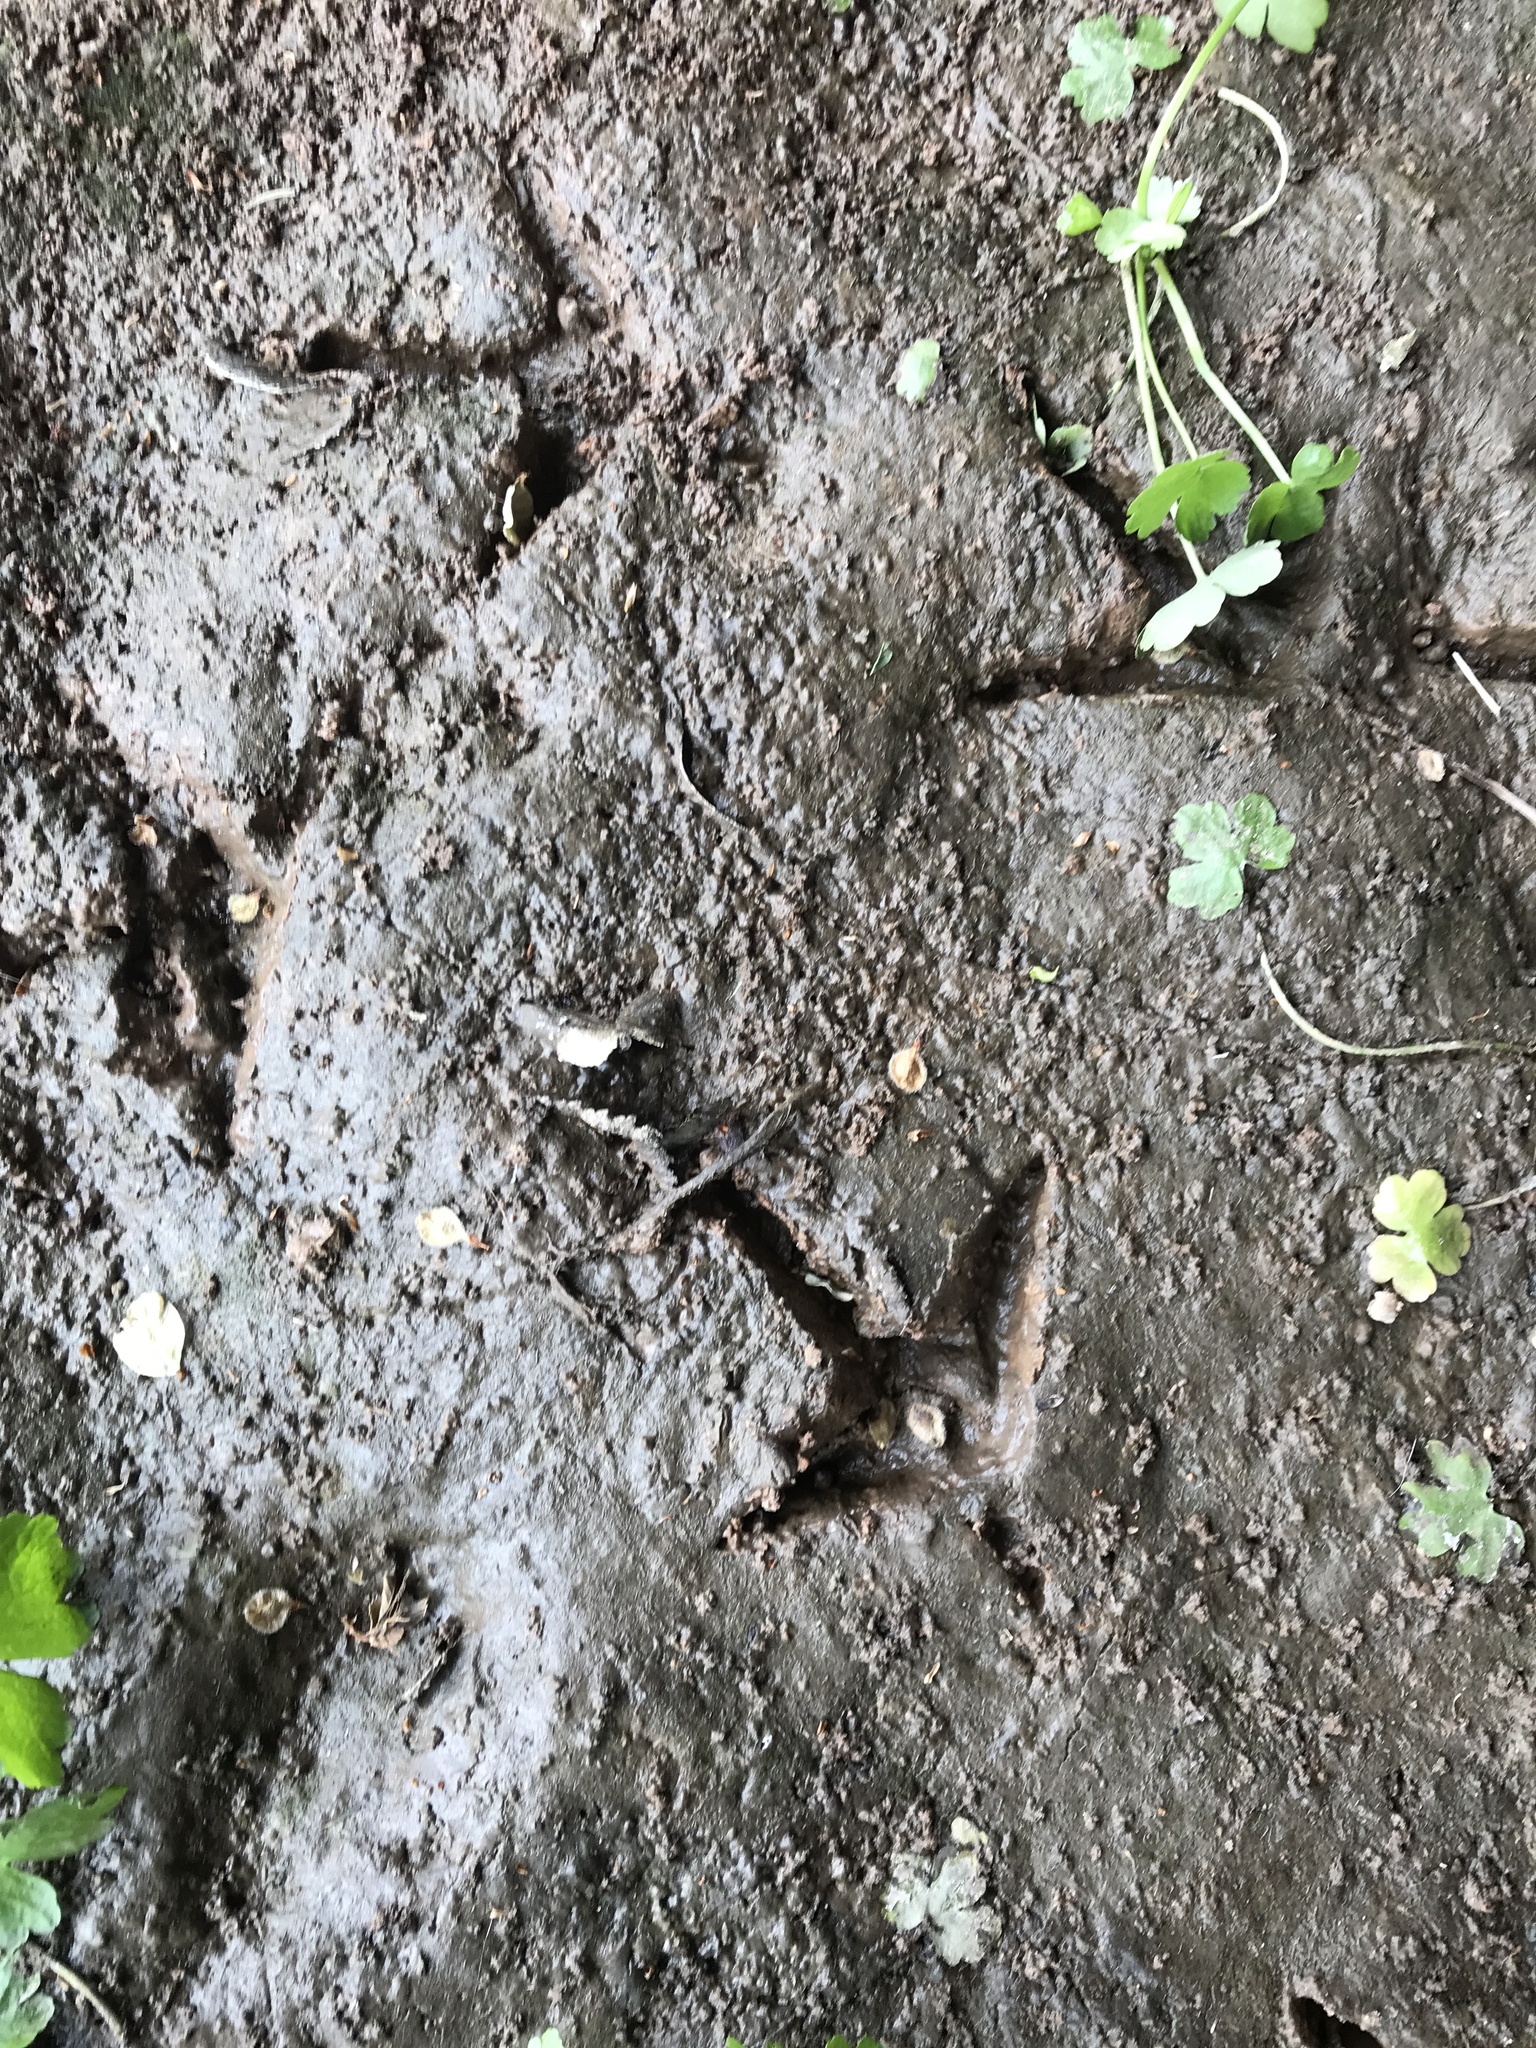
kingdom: Animalia
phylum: Chordata
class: Aves
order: Galliformes
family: Phasianidae
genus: Meleagris
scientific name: Meleagris gallopavo
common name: Wild turkey
